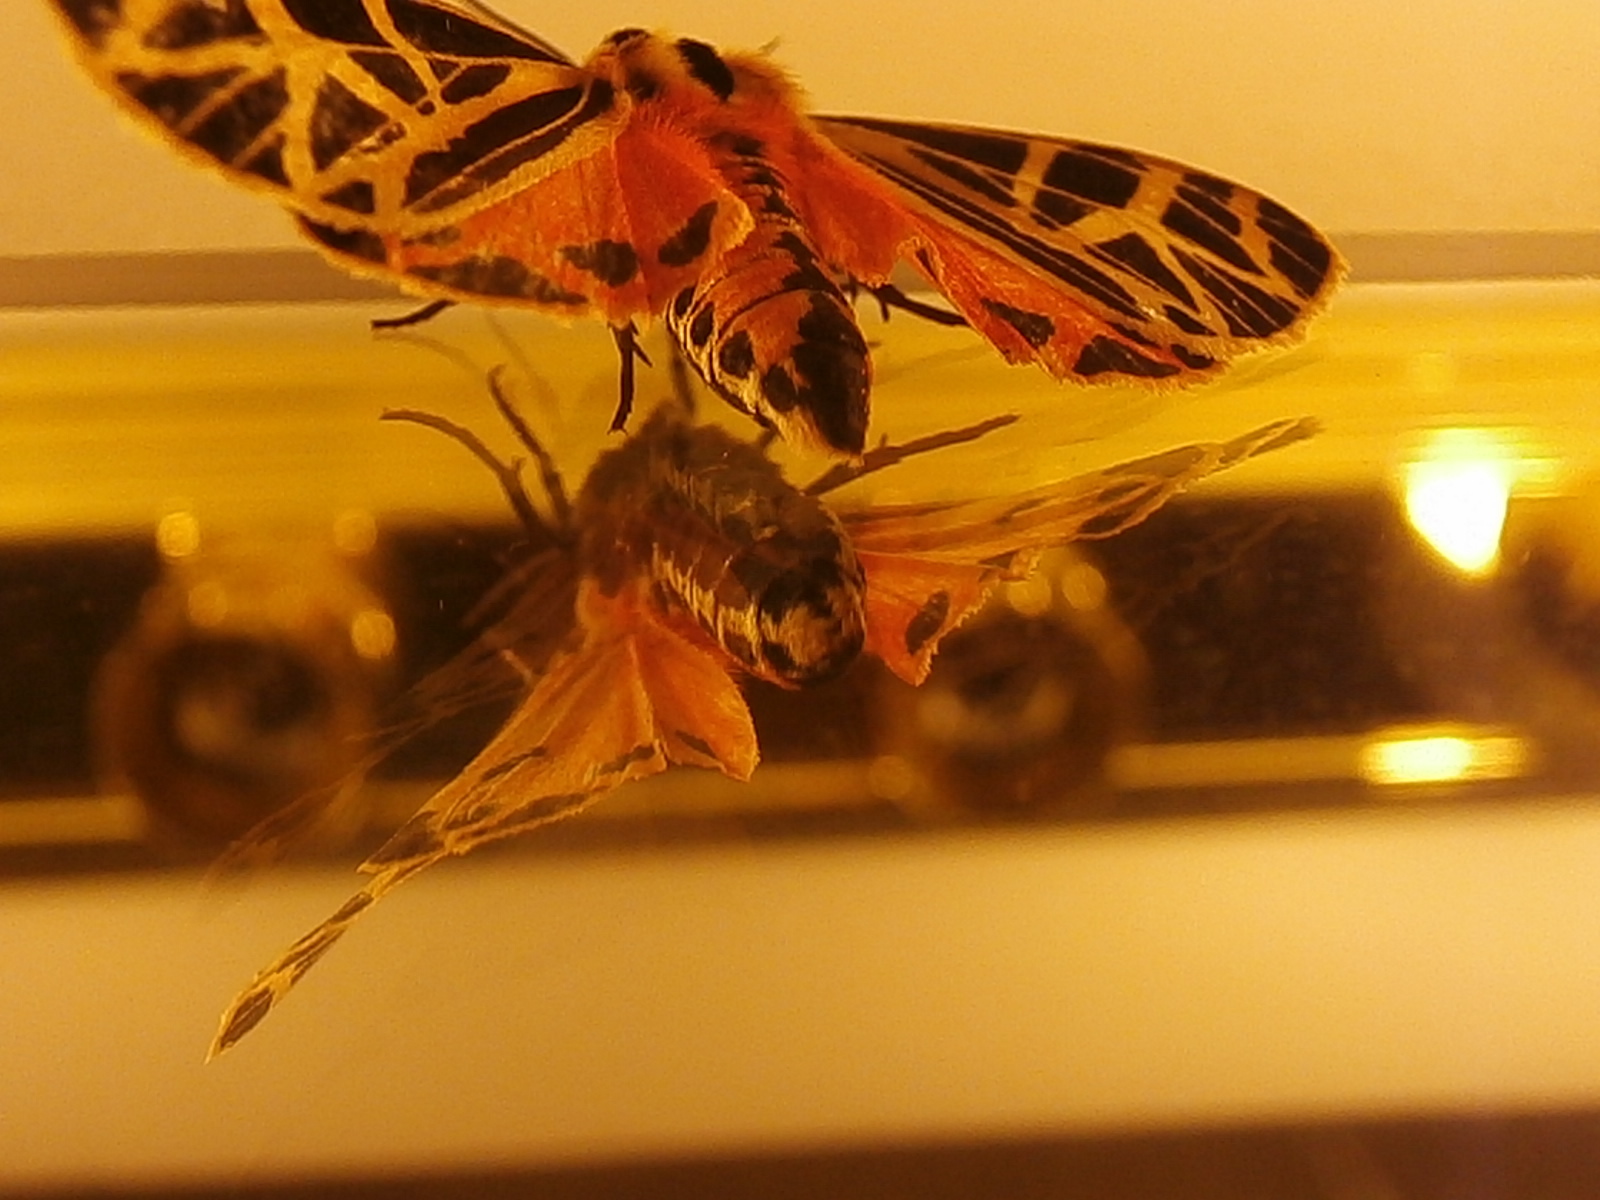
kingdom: Animalia
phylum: Arthropoda
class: Insecta
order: Lepidoptera
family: Erebidae
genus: Grammia
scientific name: Grammia parthenice
